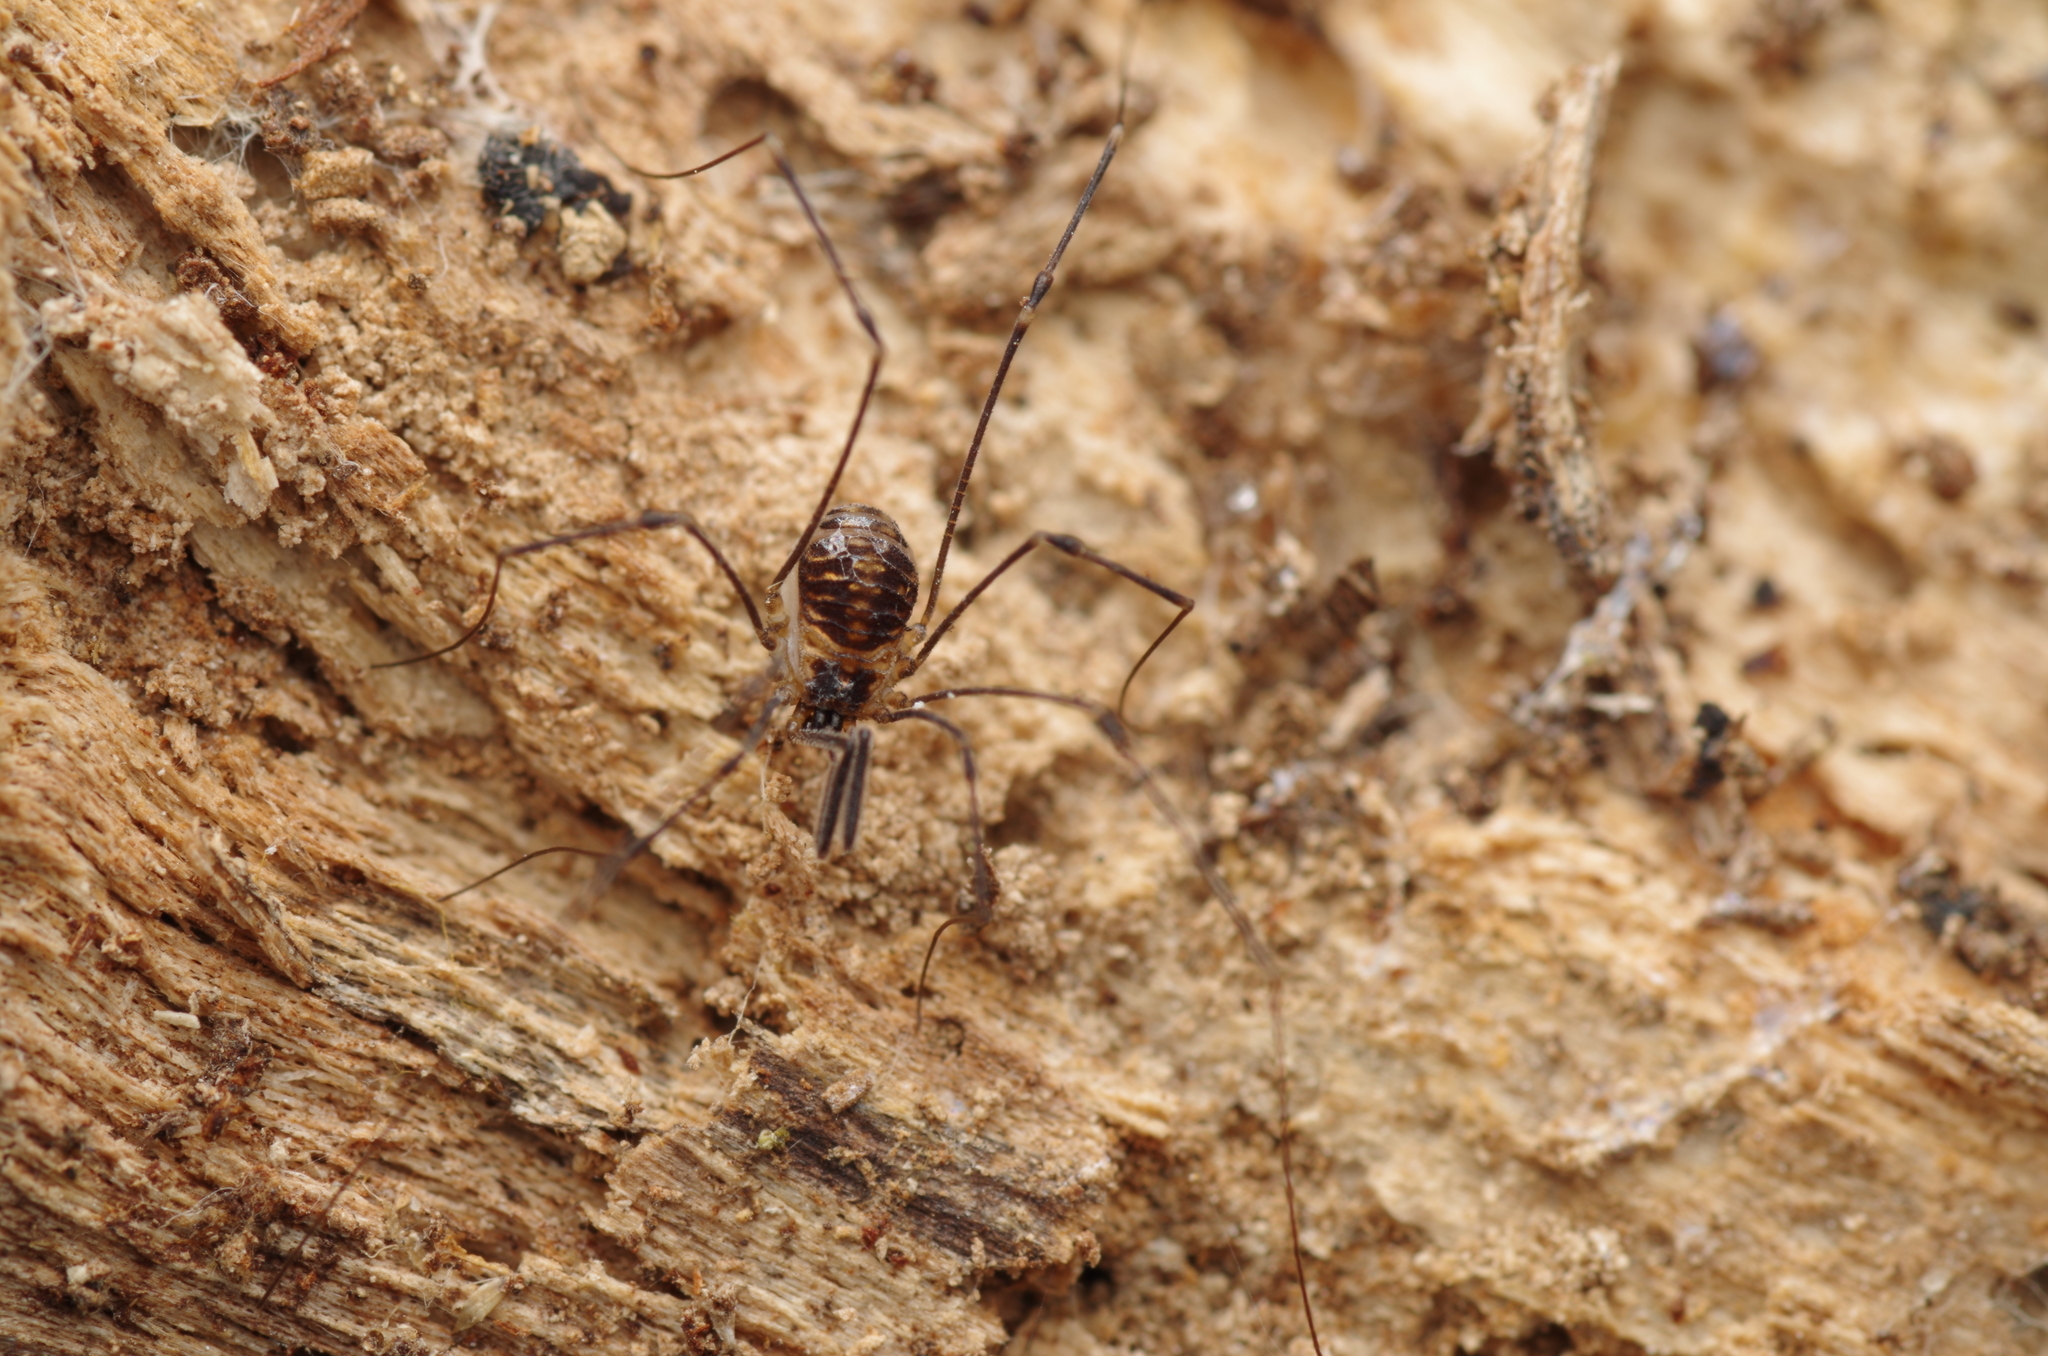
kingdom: Animalia
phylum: Arthropoda
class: Arachnida
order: Opiliones
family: Nemastomatidae
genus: Mitostoma
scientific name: Mitostoma chrysomelas
